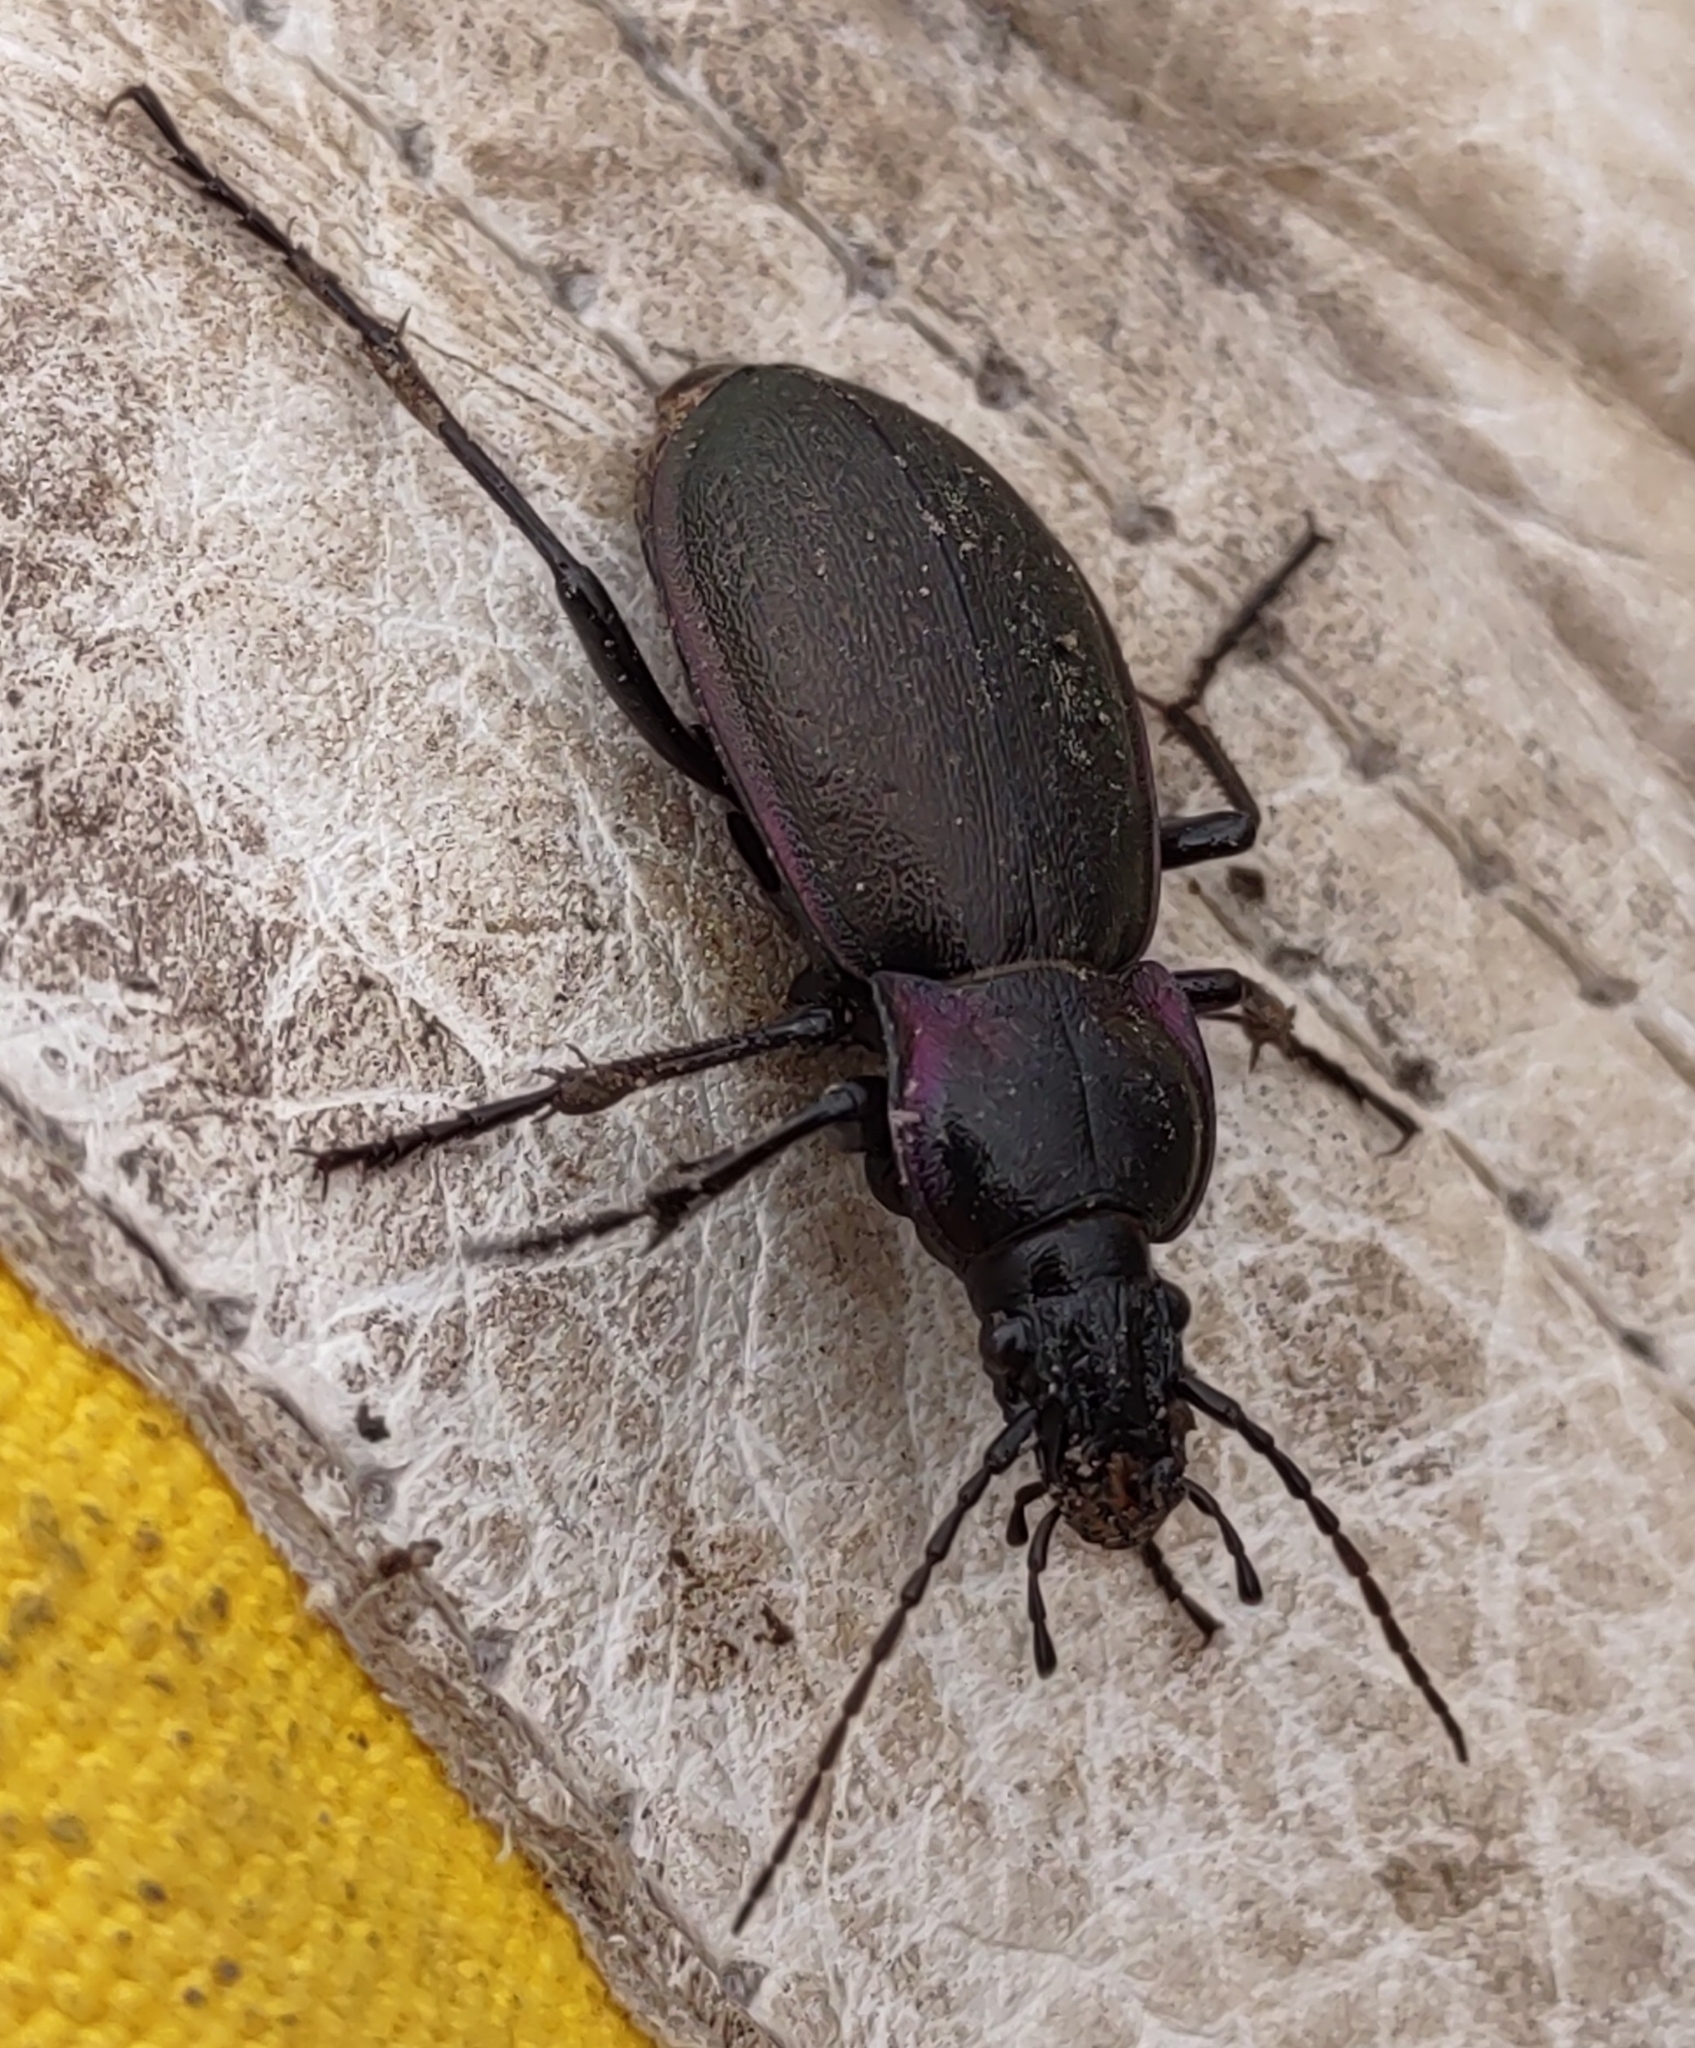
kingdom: Animalia
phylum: Arthropoda
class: Insecta
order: Coleoptera
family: Carabidae
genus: Carabus
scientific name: Carabus nemoralis
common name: European ground beetle
